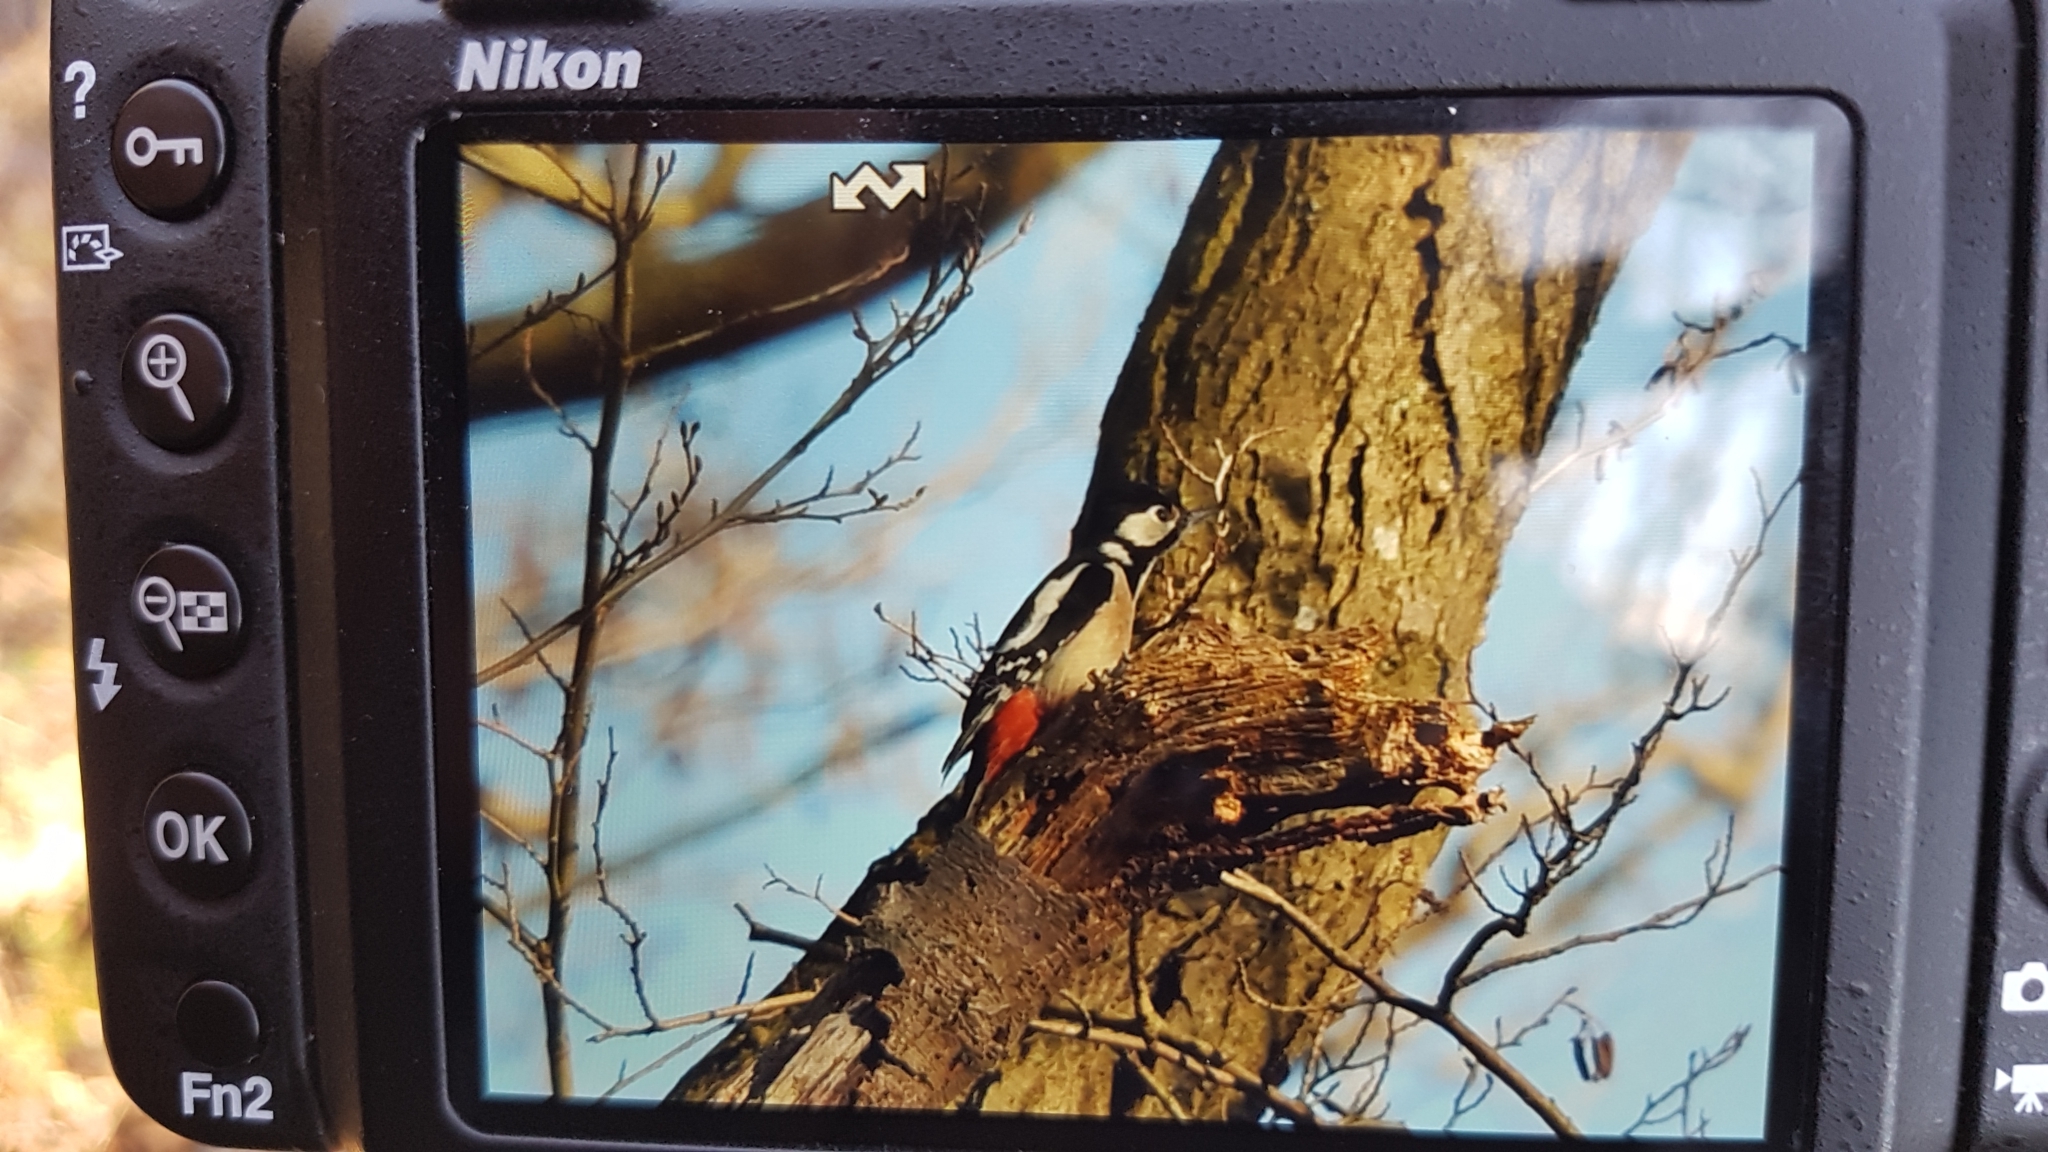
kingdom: Animalia
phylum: Chordata
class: Aves
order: Piciformes
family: Picidae
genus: Dendrocopos
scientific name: Dendrocopos major
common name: Great spotted woodpecker
